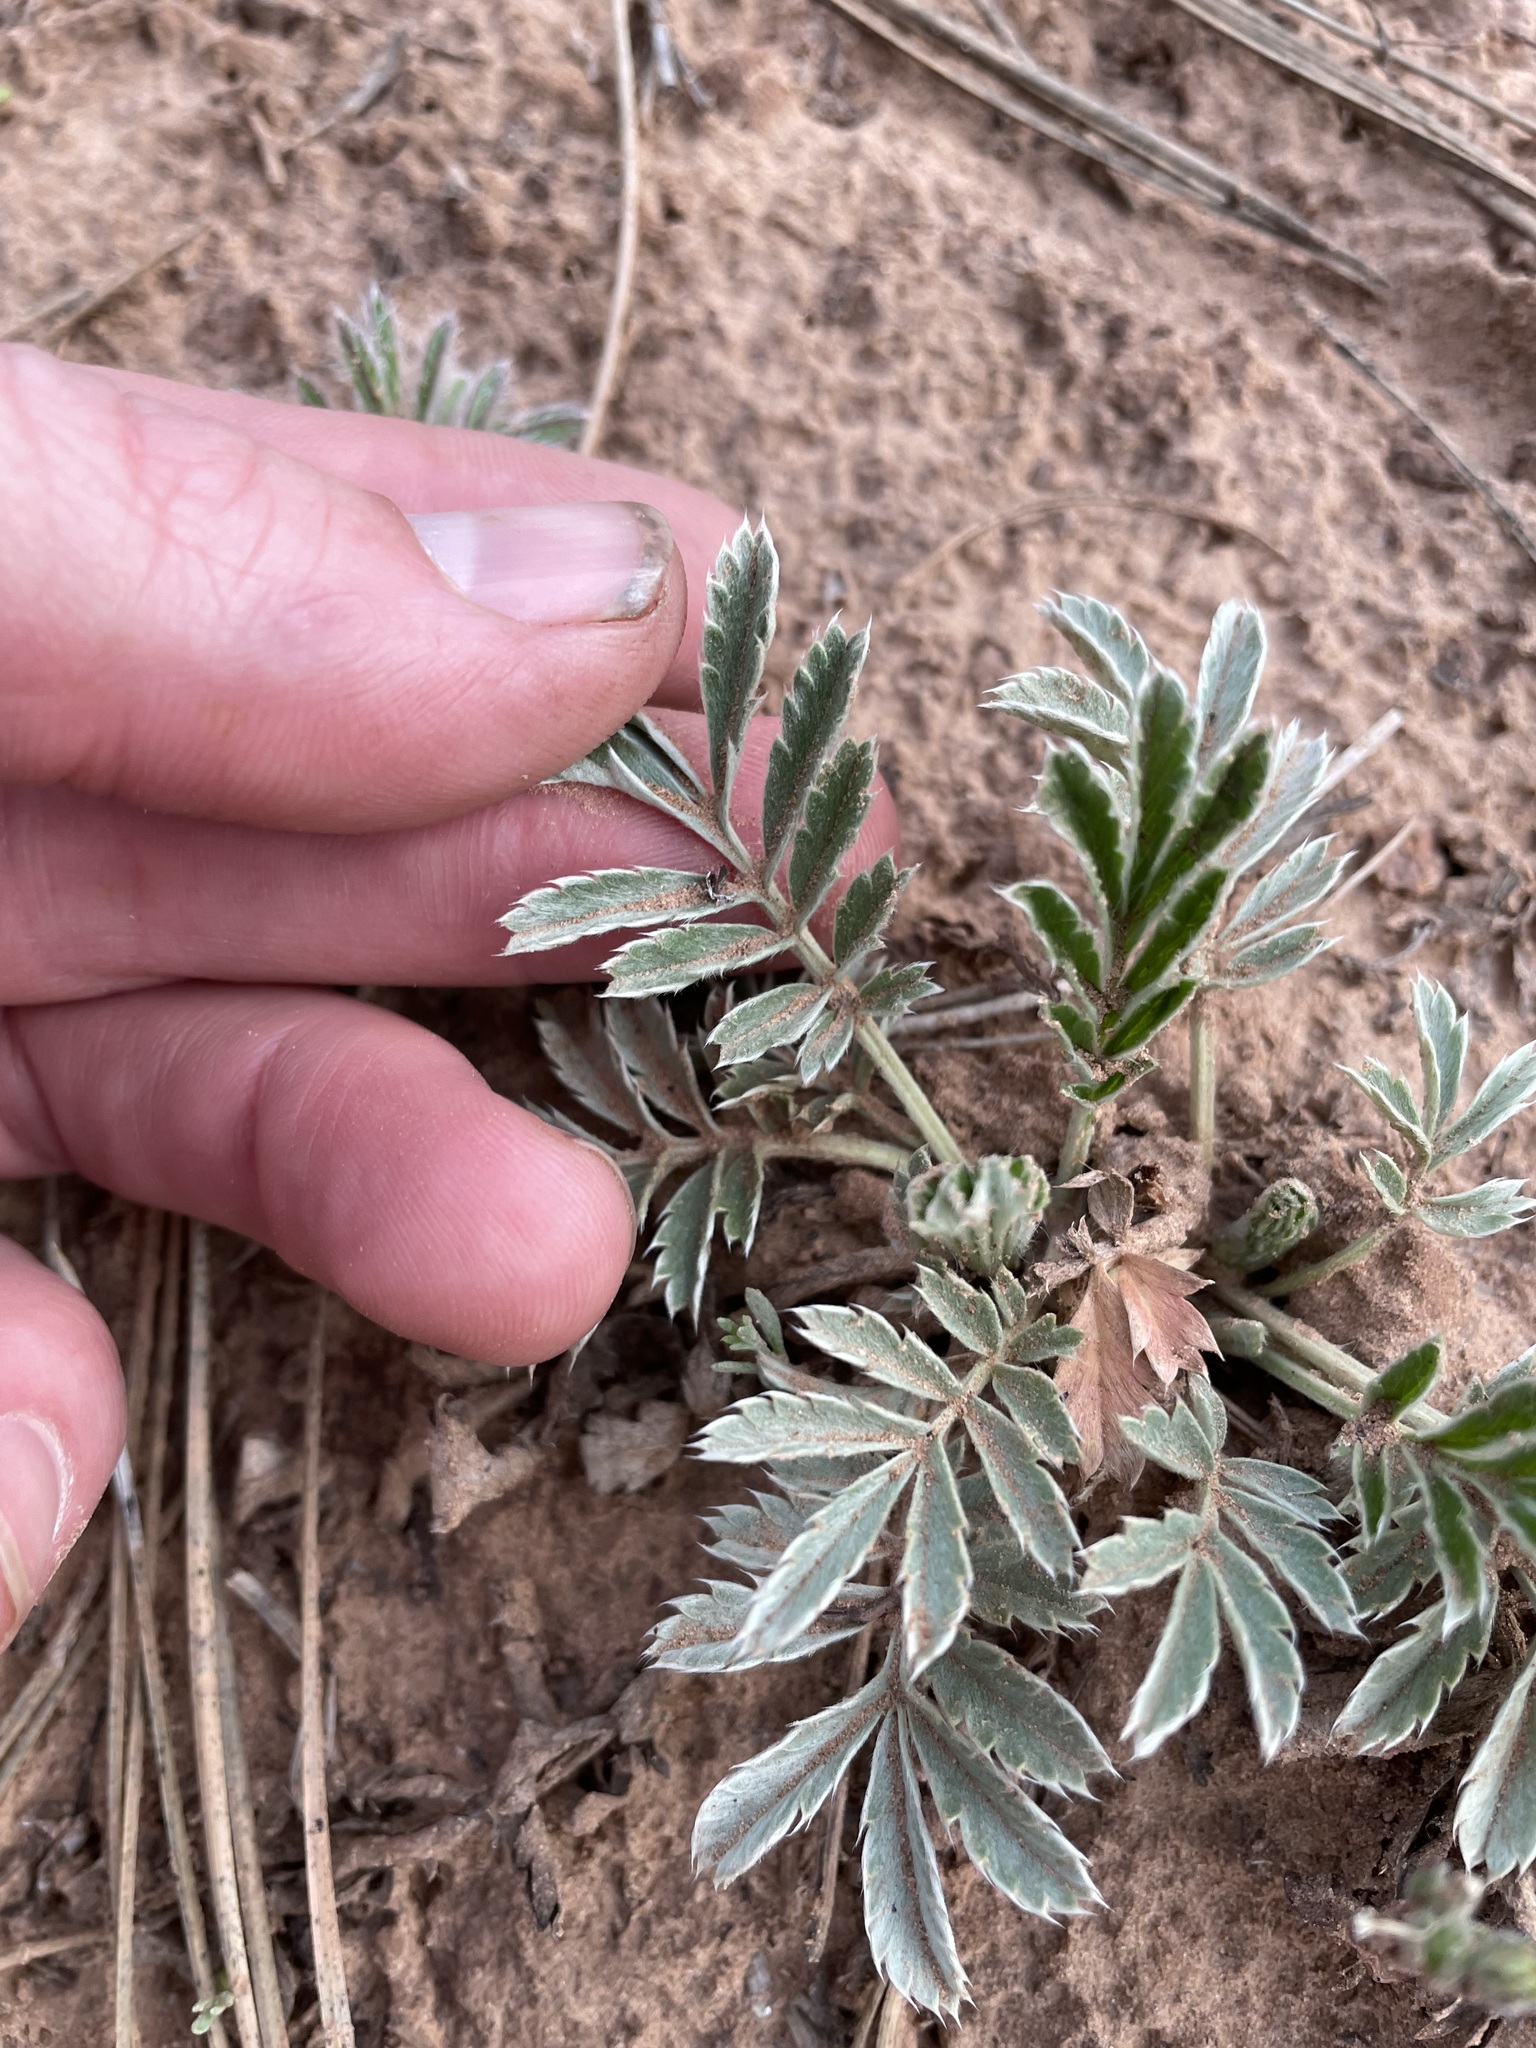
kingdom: Plantae
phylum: Tracheophyta
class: Magnoliopsida
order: Rosales
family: Rosaceae
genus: Argentina
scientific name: Argentina anserina
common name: Common silverweed
